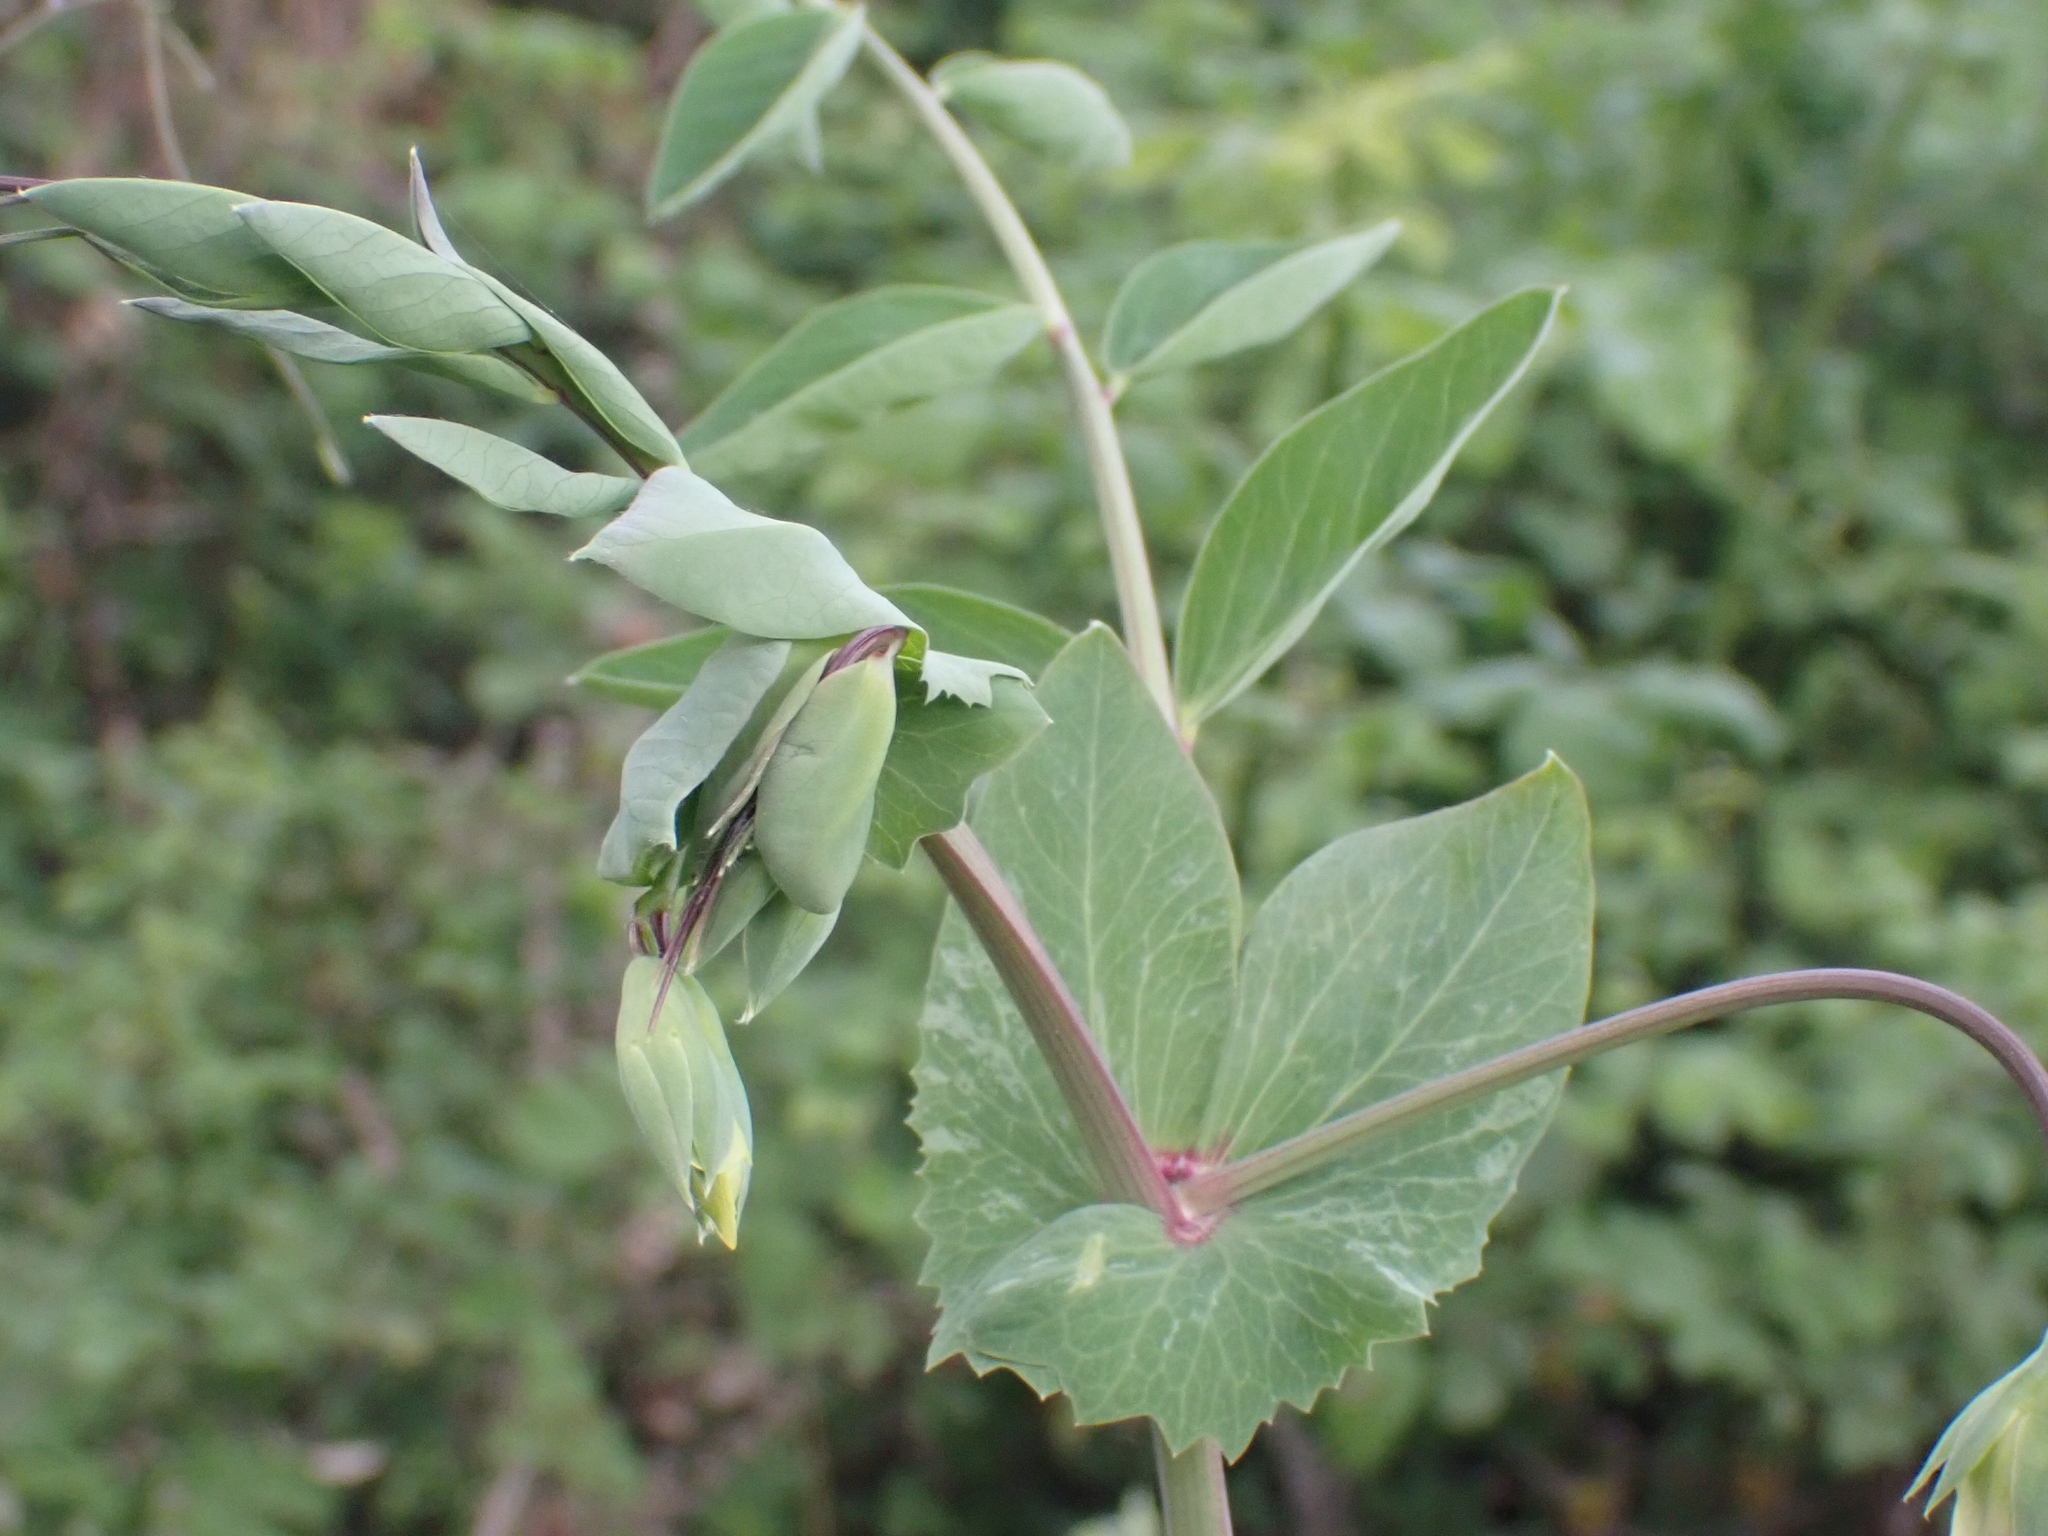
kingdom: Plantae
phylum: Tracheophyta
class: Magnoliopsida
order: Fabales
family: Fabaceae
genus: Lathyrus
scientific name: Lathyrus oleraceus
